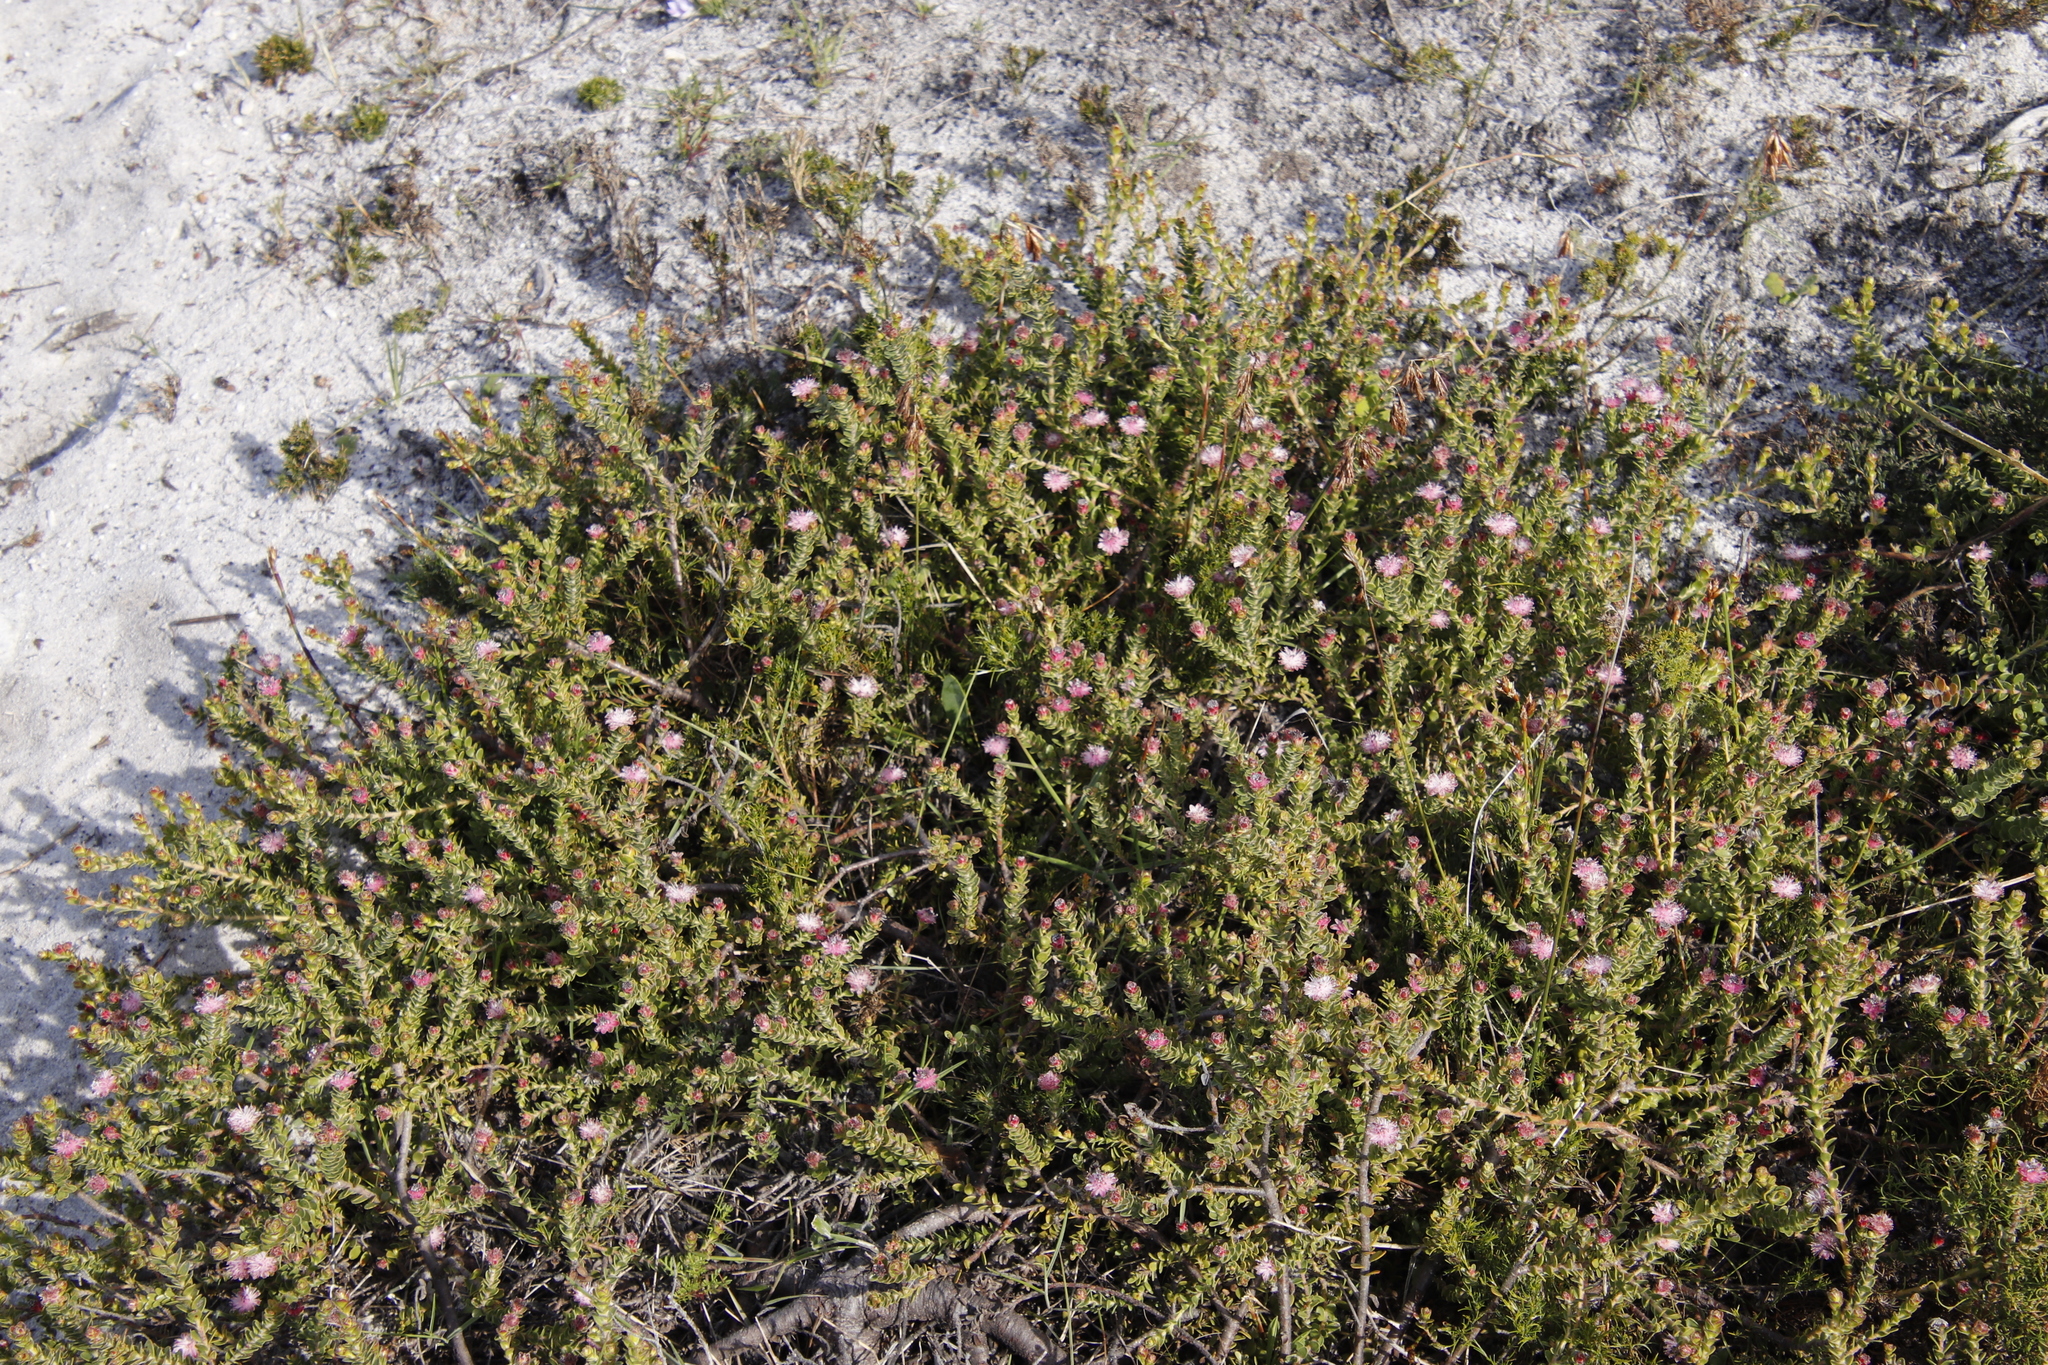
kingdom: Plantae
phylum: Tracheophyta
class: Magnoliopsida
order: Proteales
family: Proteaceae
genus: Diastella
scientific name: Diastella divaricata
